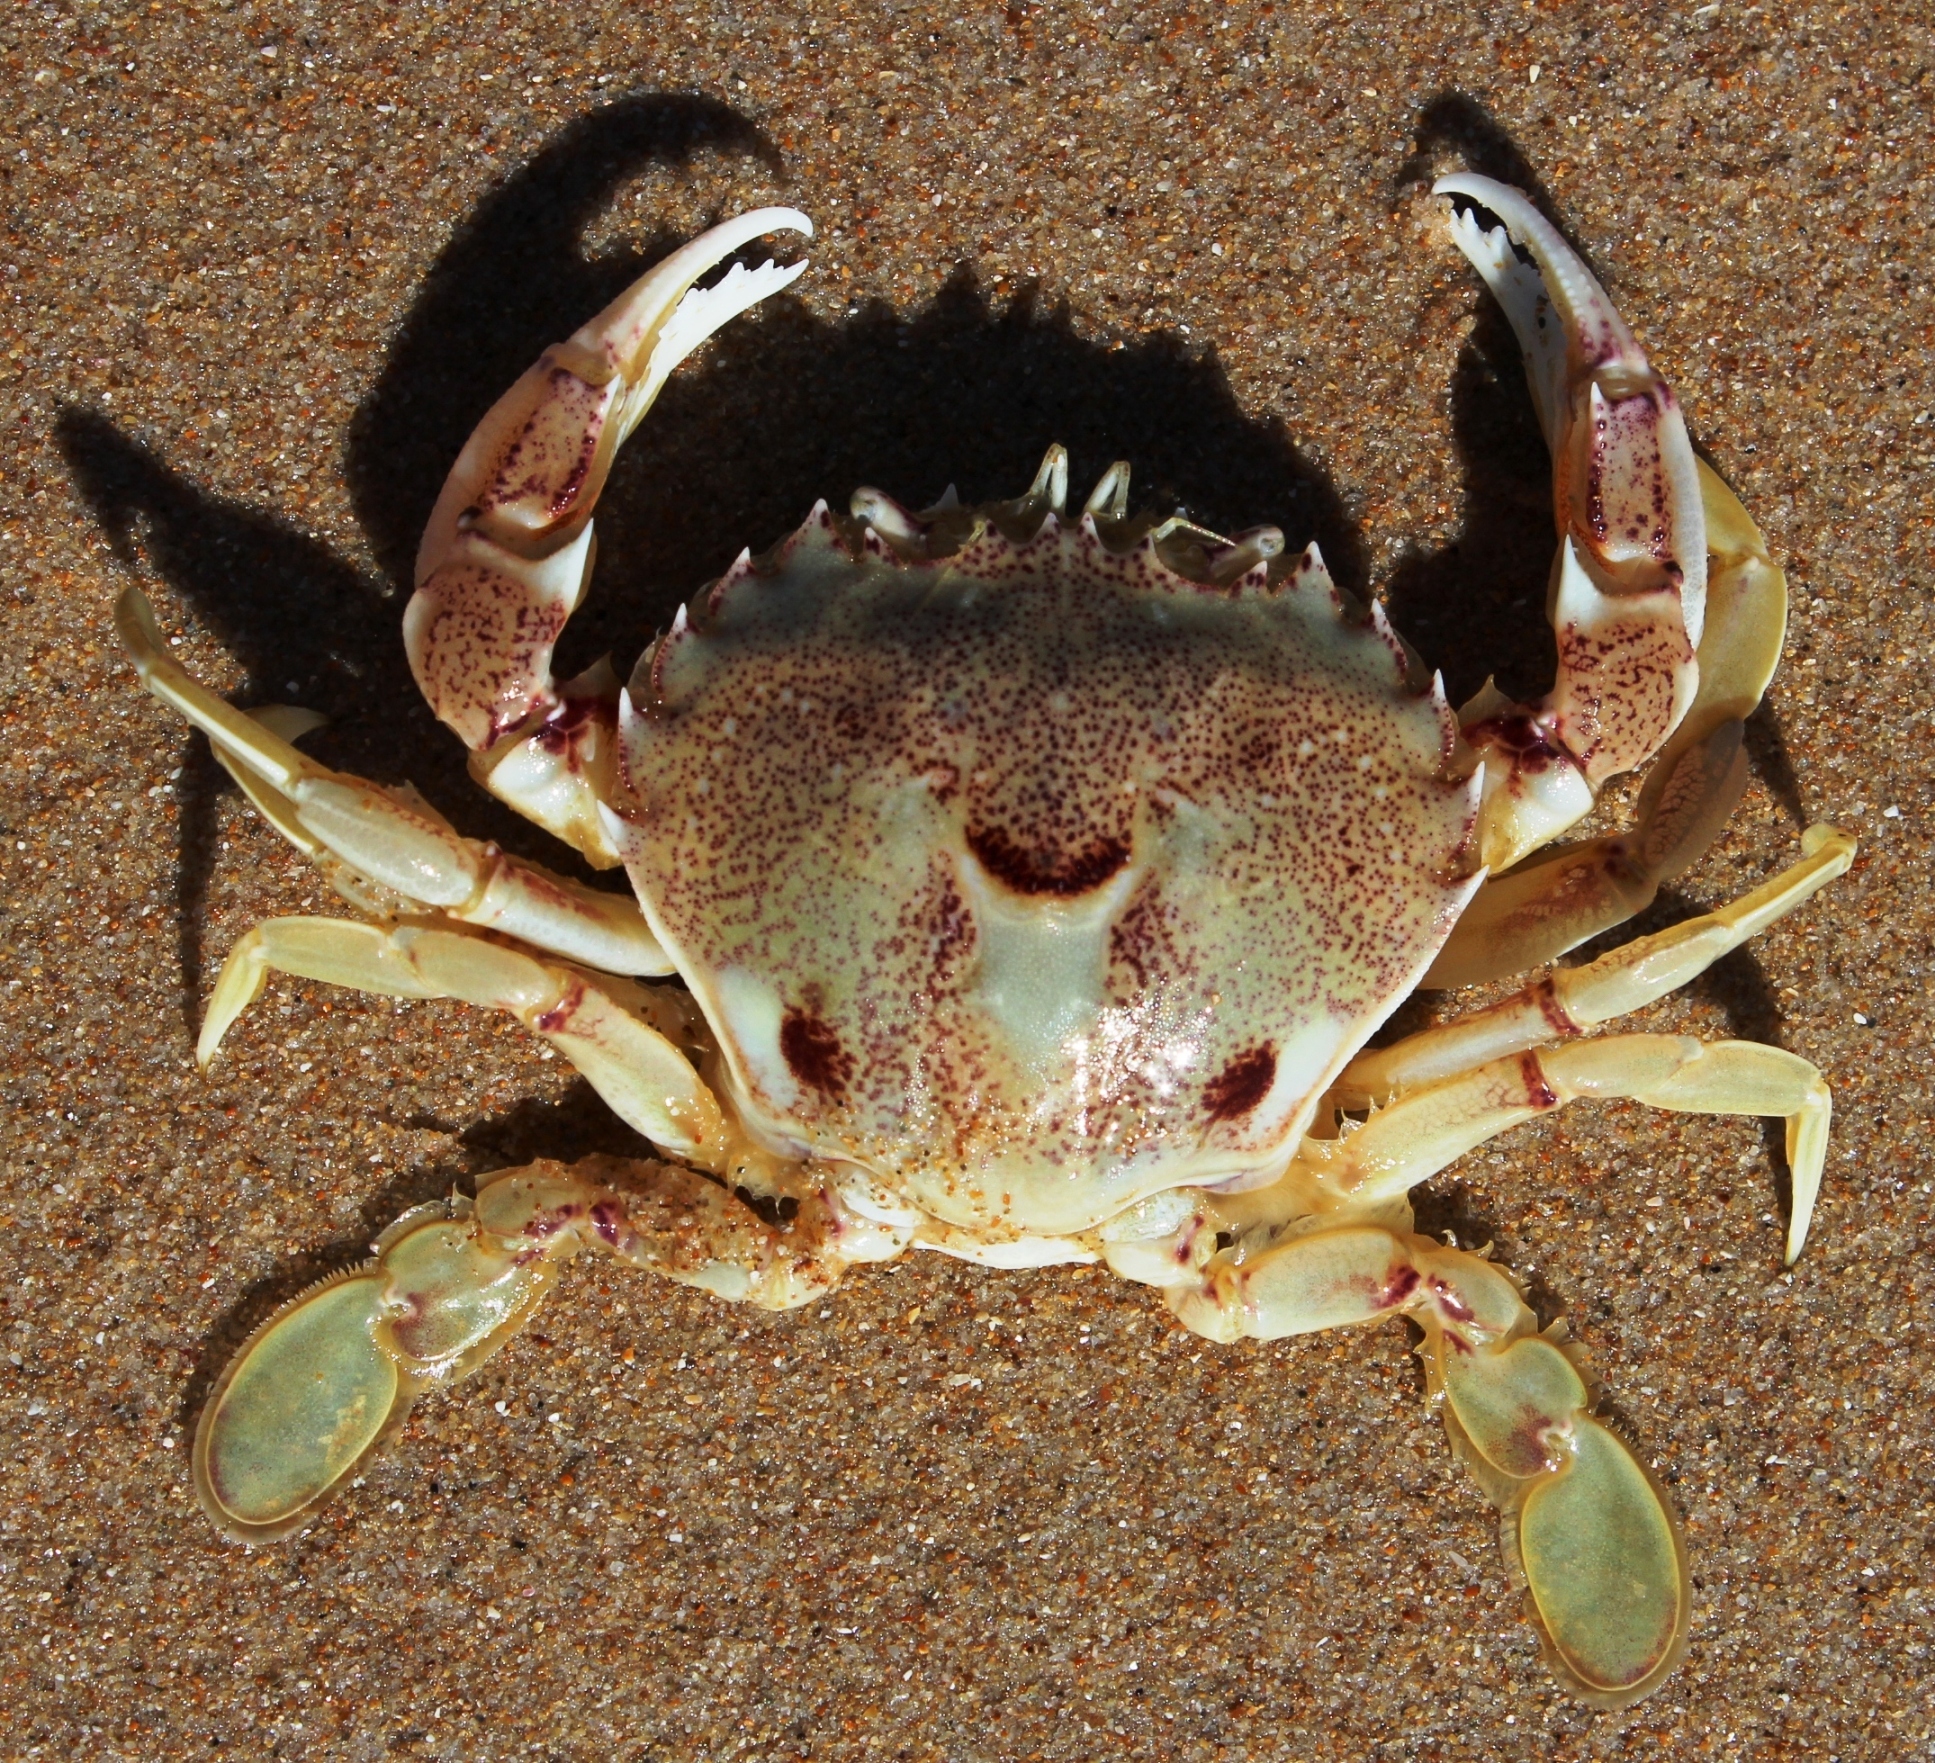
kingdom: Animalia
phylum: Arthropoda
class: Malacostraca
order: Decapoda
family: Ovalipidae
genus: Ovalipes
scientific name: Ovalipes trimaculatus
